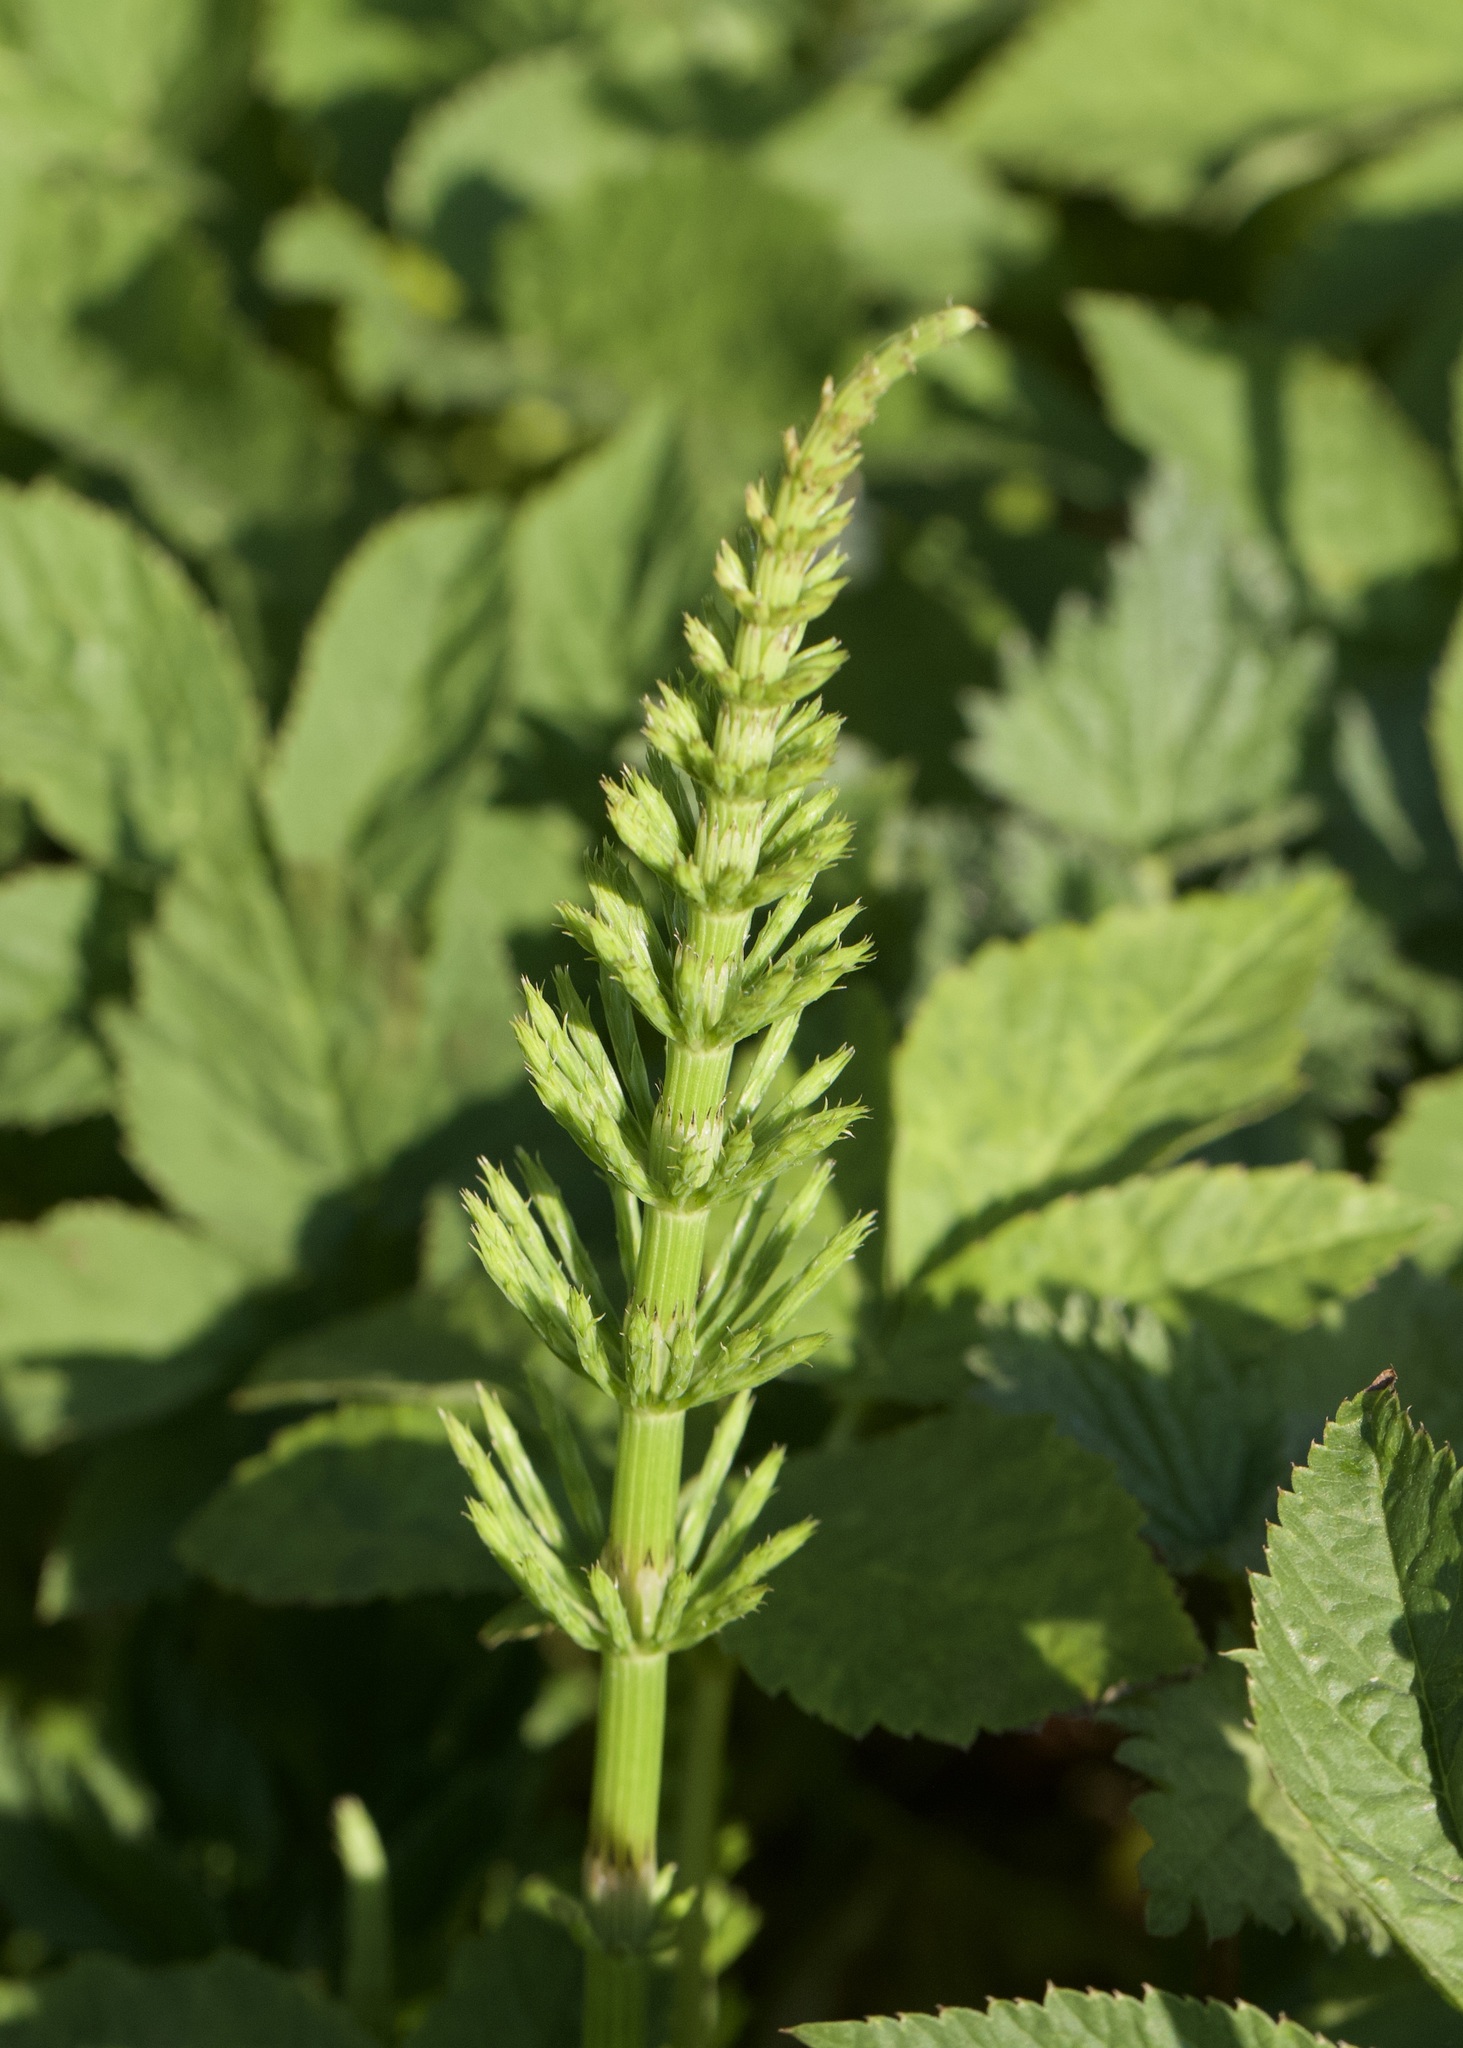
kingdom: Plantae
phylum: Tracheophyta
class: Polypodiopsida
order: Equisetales
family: Equisetaceae
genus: Equisetum
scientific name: Equisetum arvense
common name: Field horsetail
